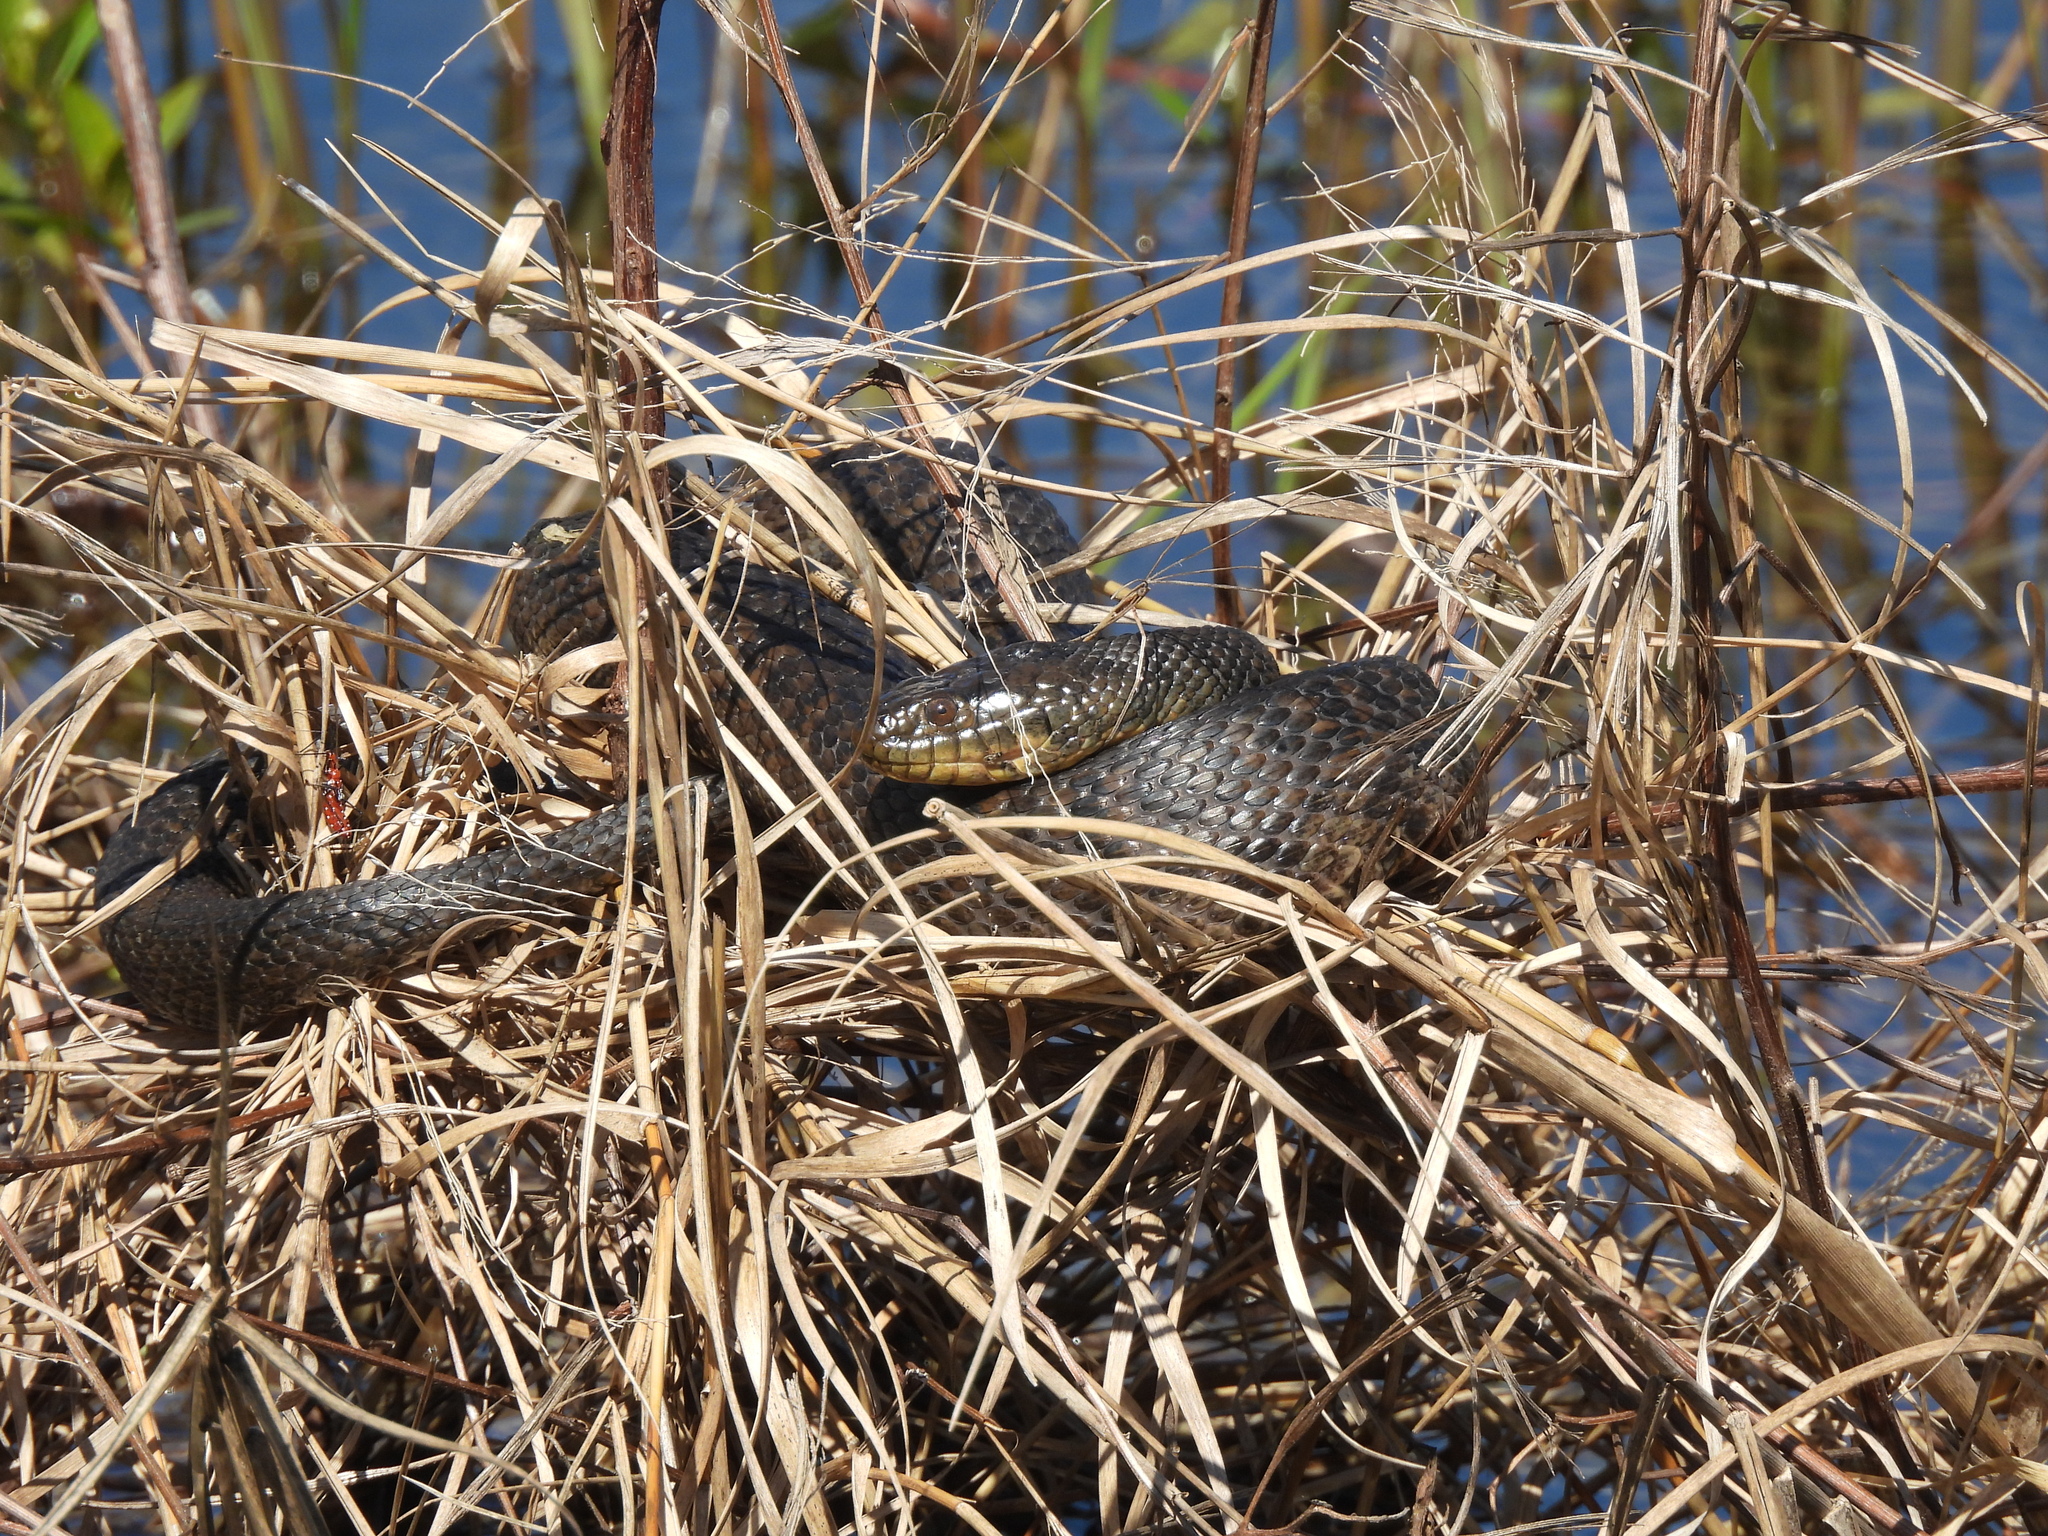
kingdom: Animalia
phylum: Chordata
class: Squamata
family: Colubridae
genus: Nerodia
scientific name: Nerodia cyclopion
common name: Mississippi green water snake
